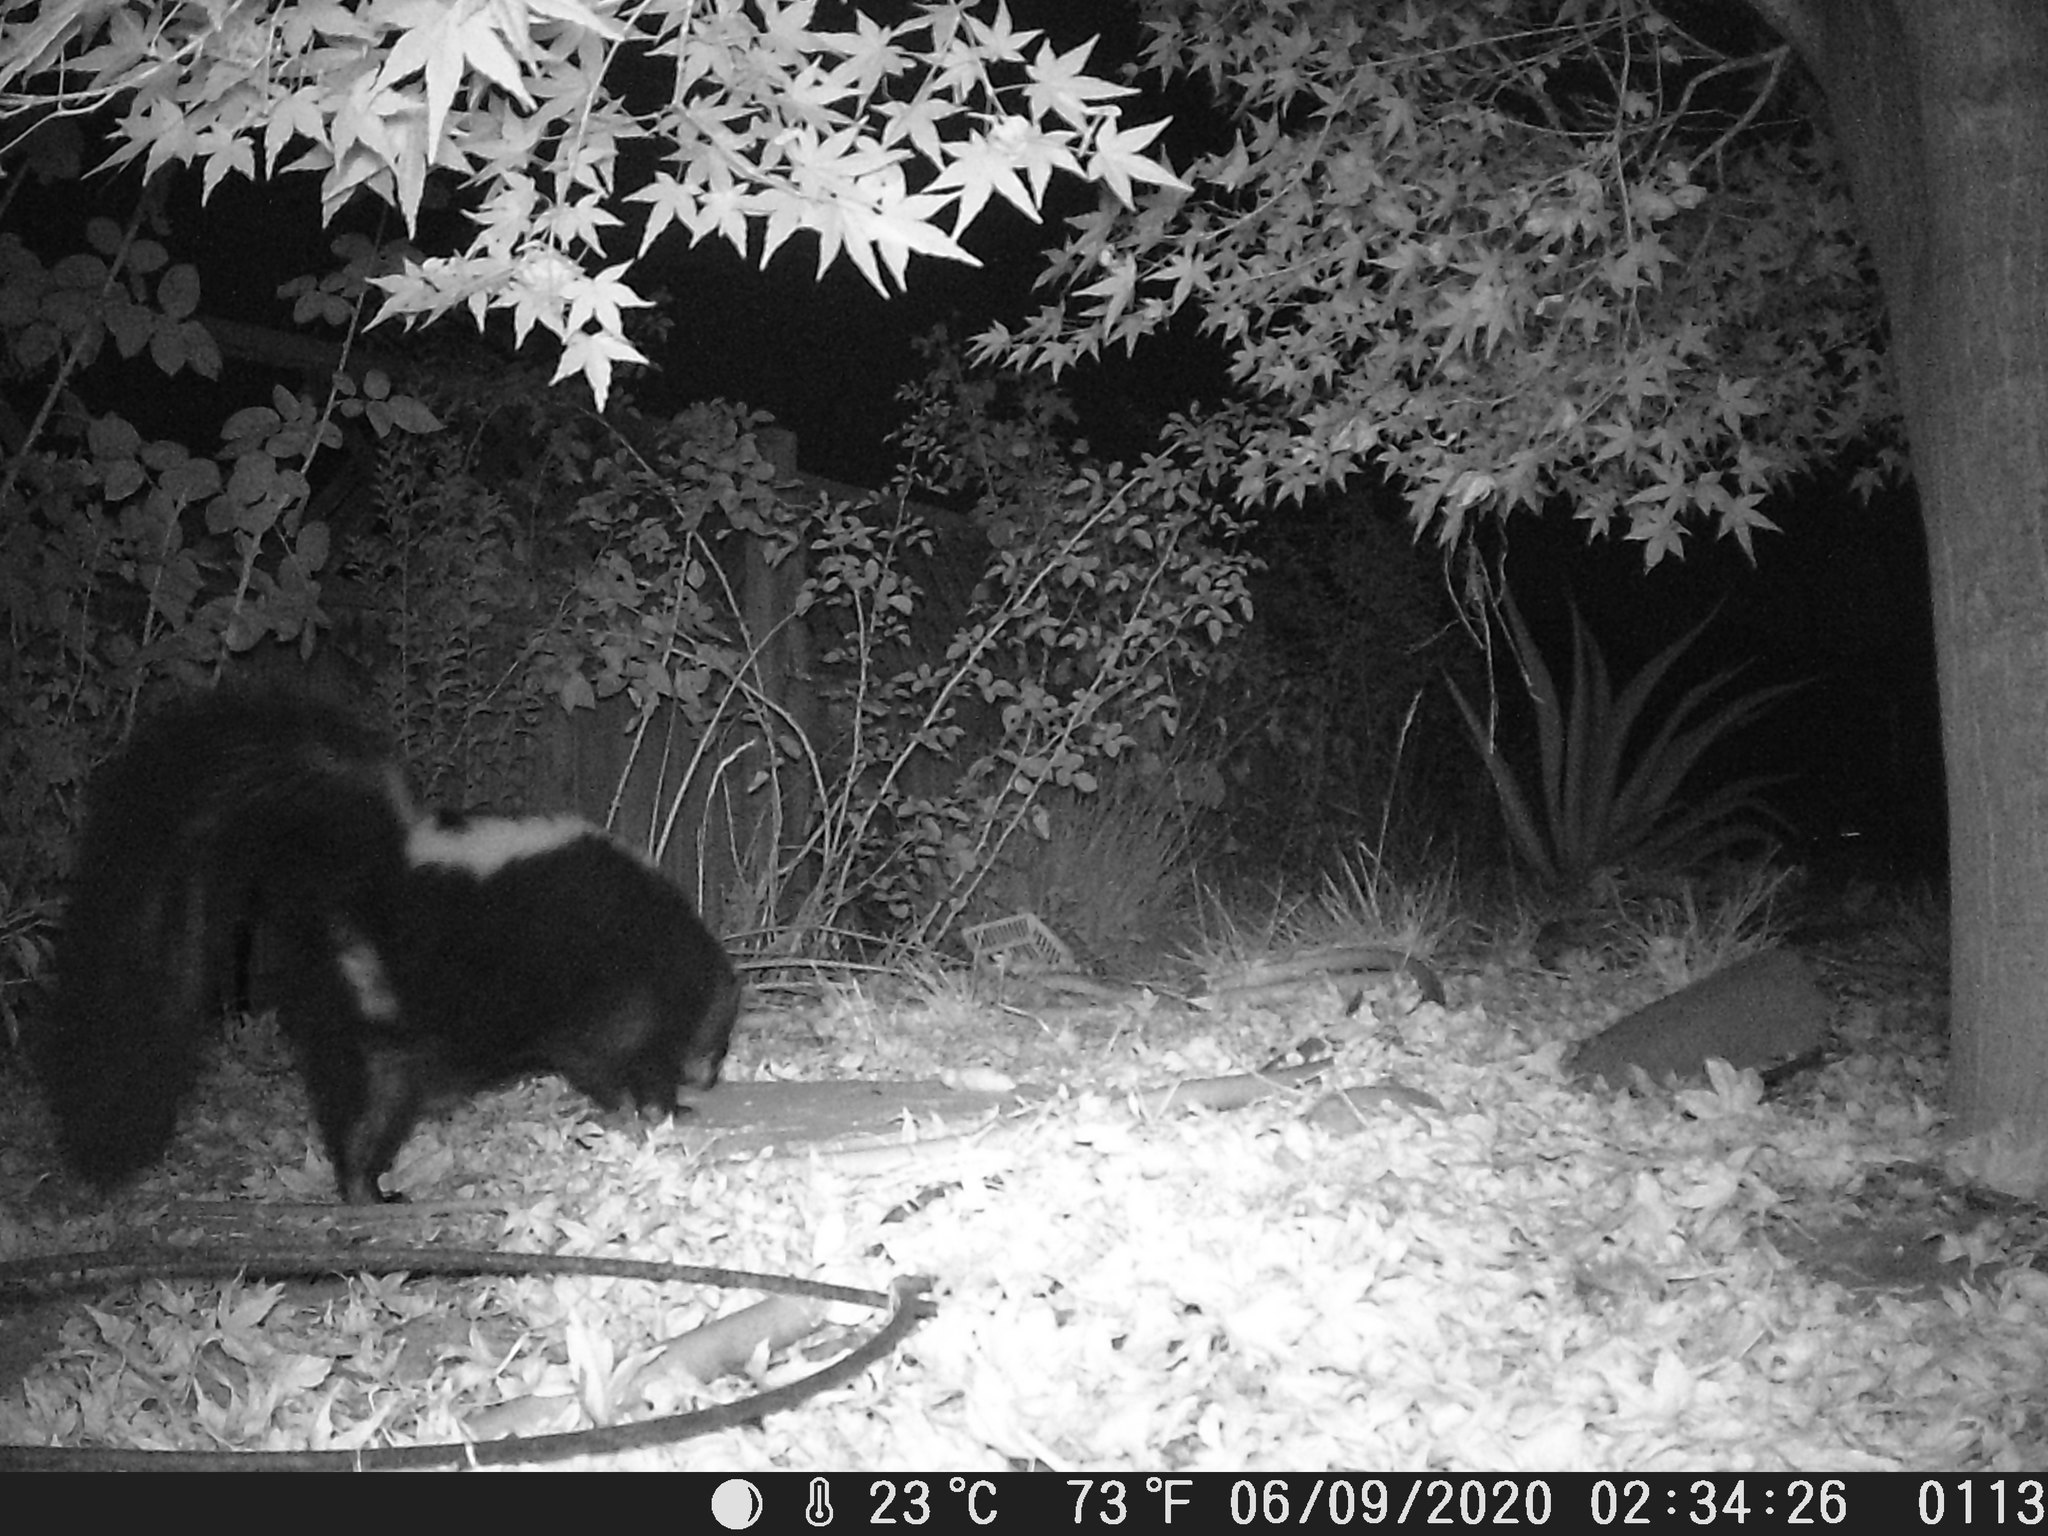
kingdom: Animalia
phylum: Chordata
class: Mammalia
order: Carnivora
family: Mephitidae
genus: Mephitis
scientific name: Mephitis mephitis
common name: Striped skunk
